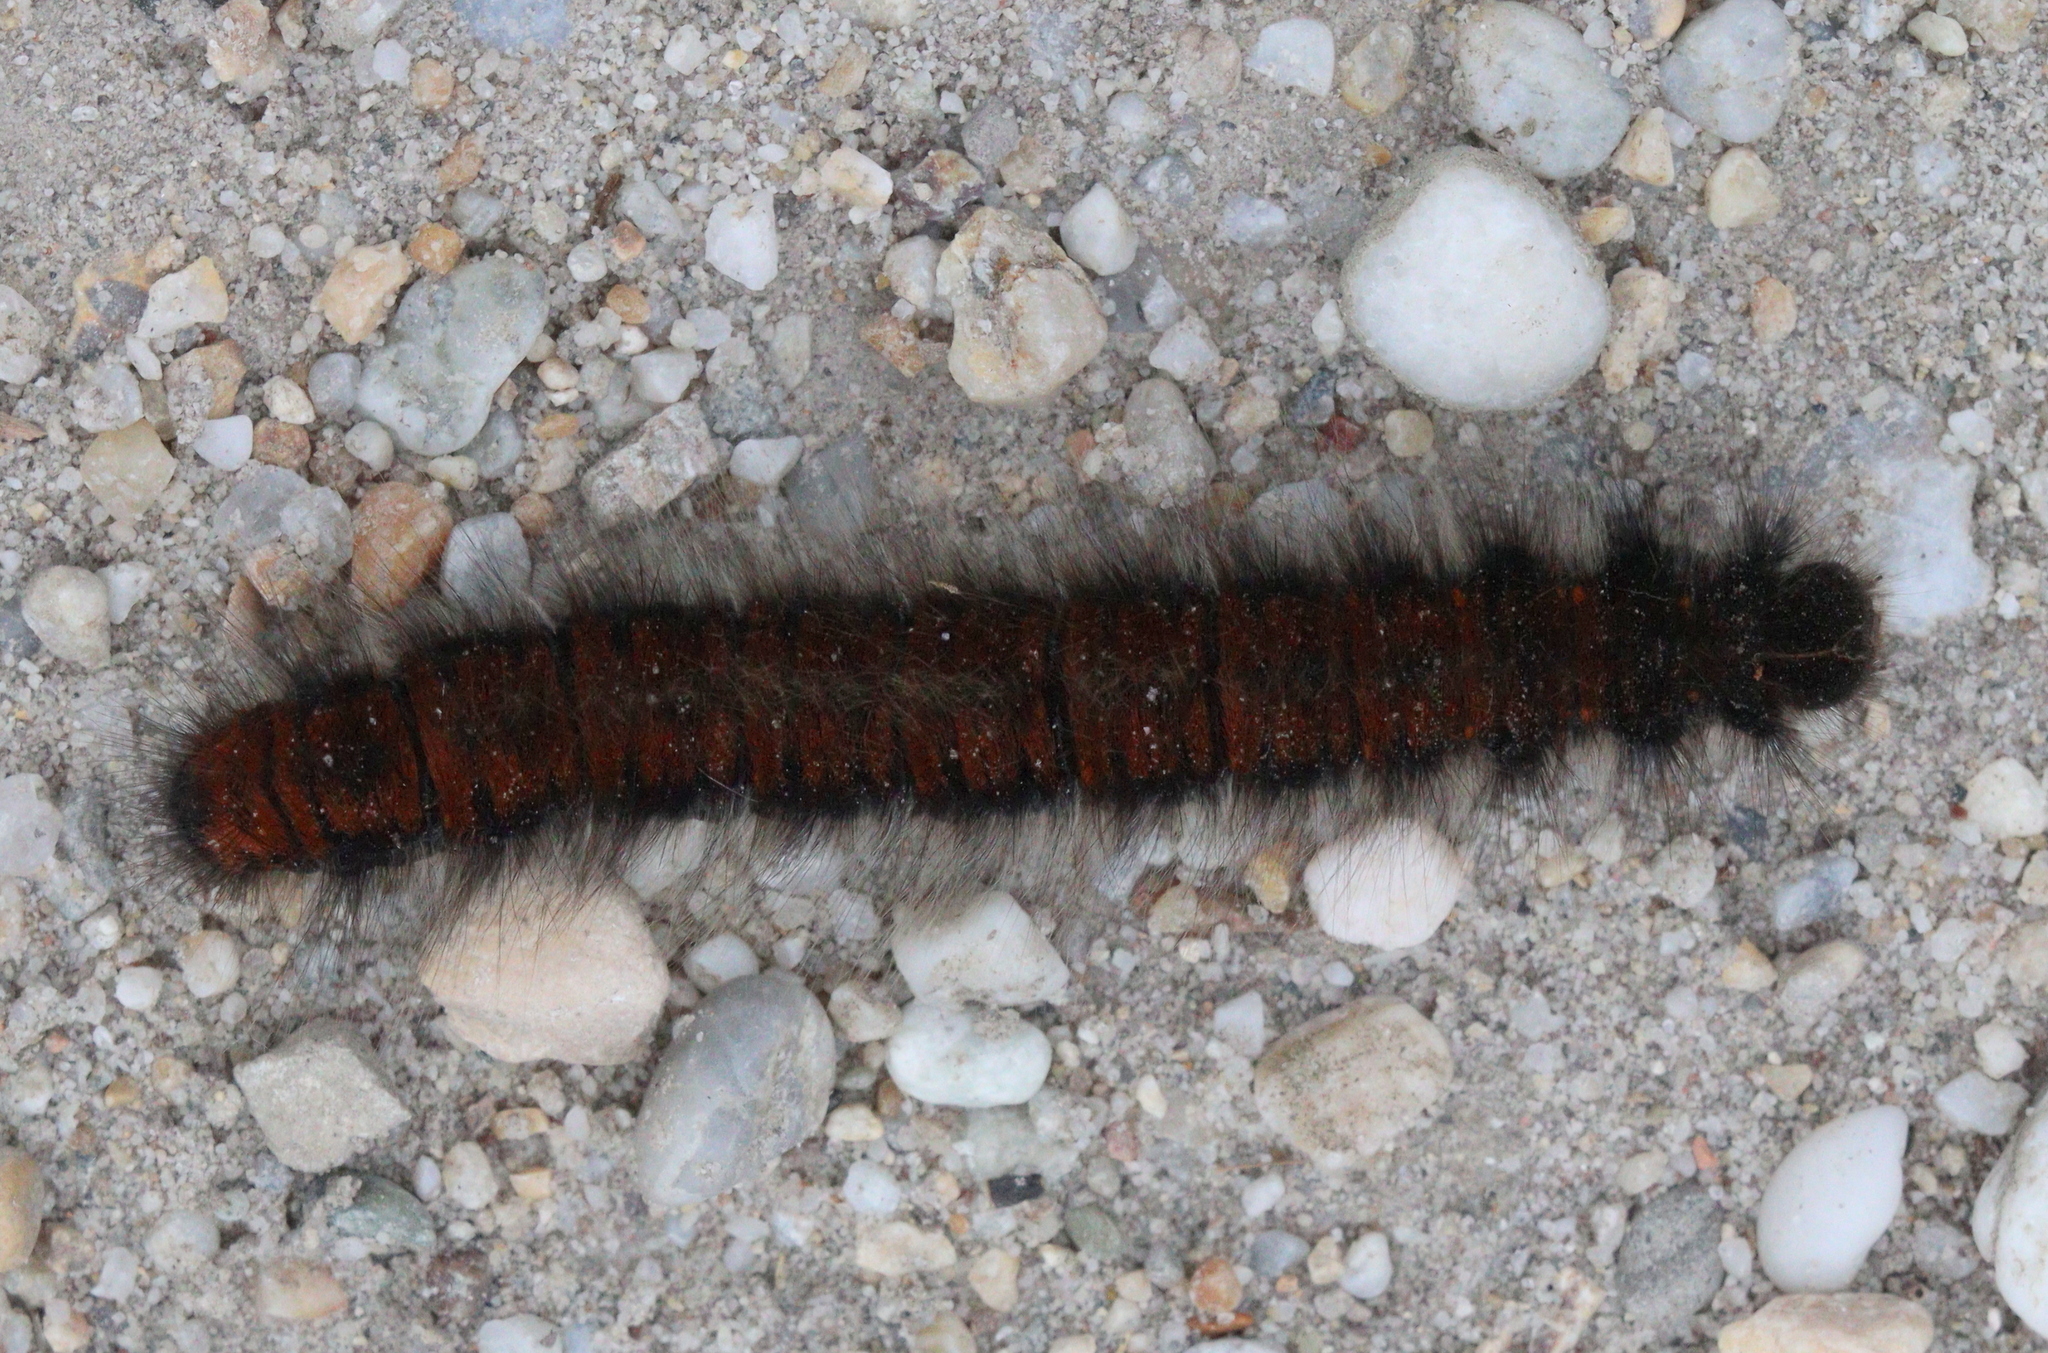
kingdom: Animalia
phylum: Arthropoda
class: Insecta
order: Lepidoptera
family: Lasiocampidae
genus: Macrothylacia
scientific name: Macrothylacia rubi
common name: Fox moth
